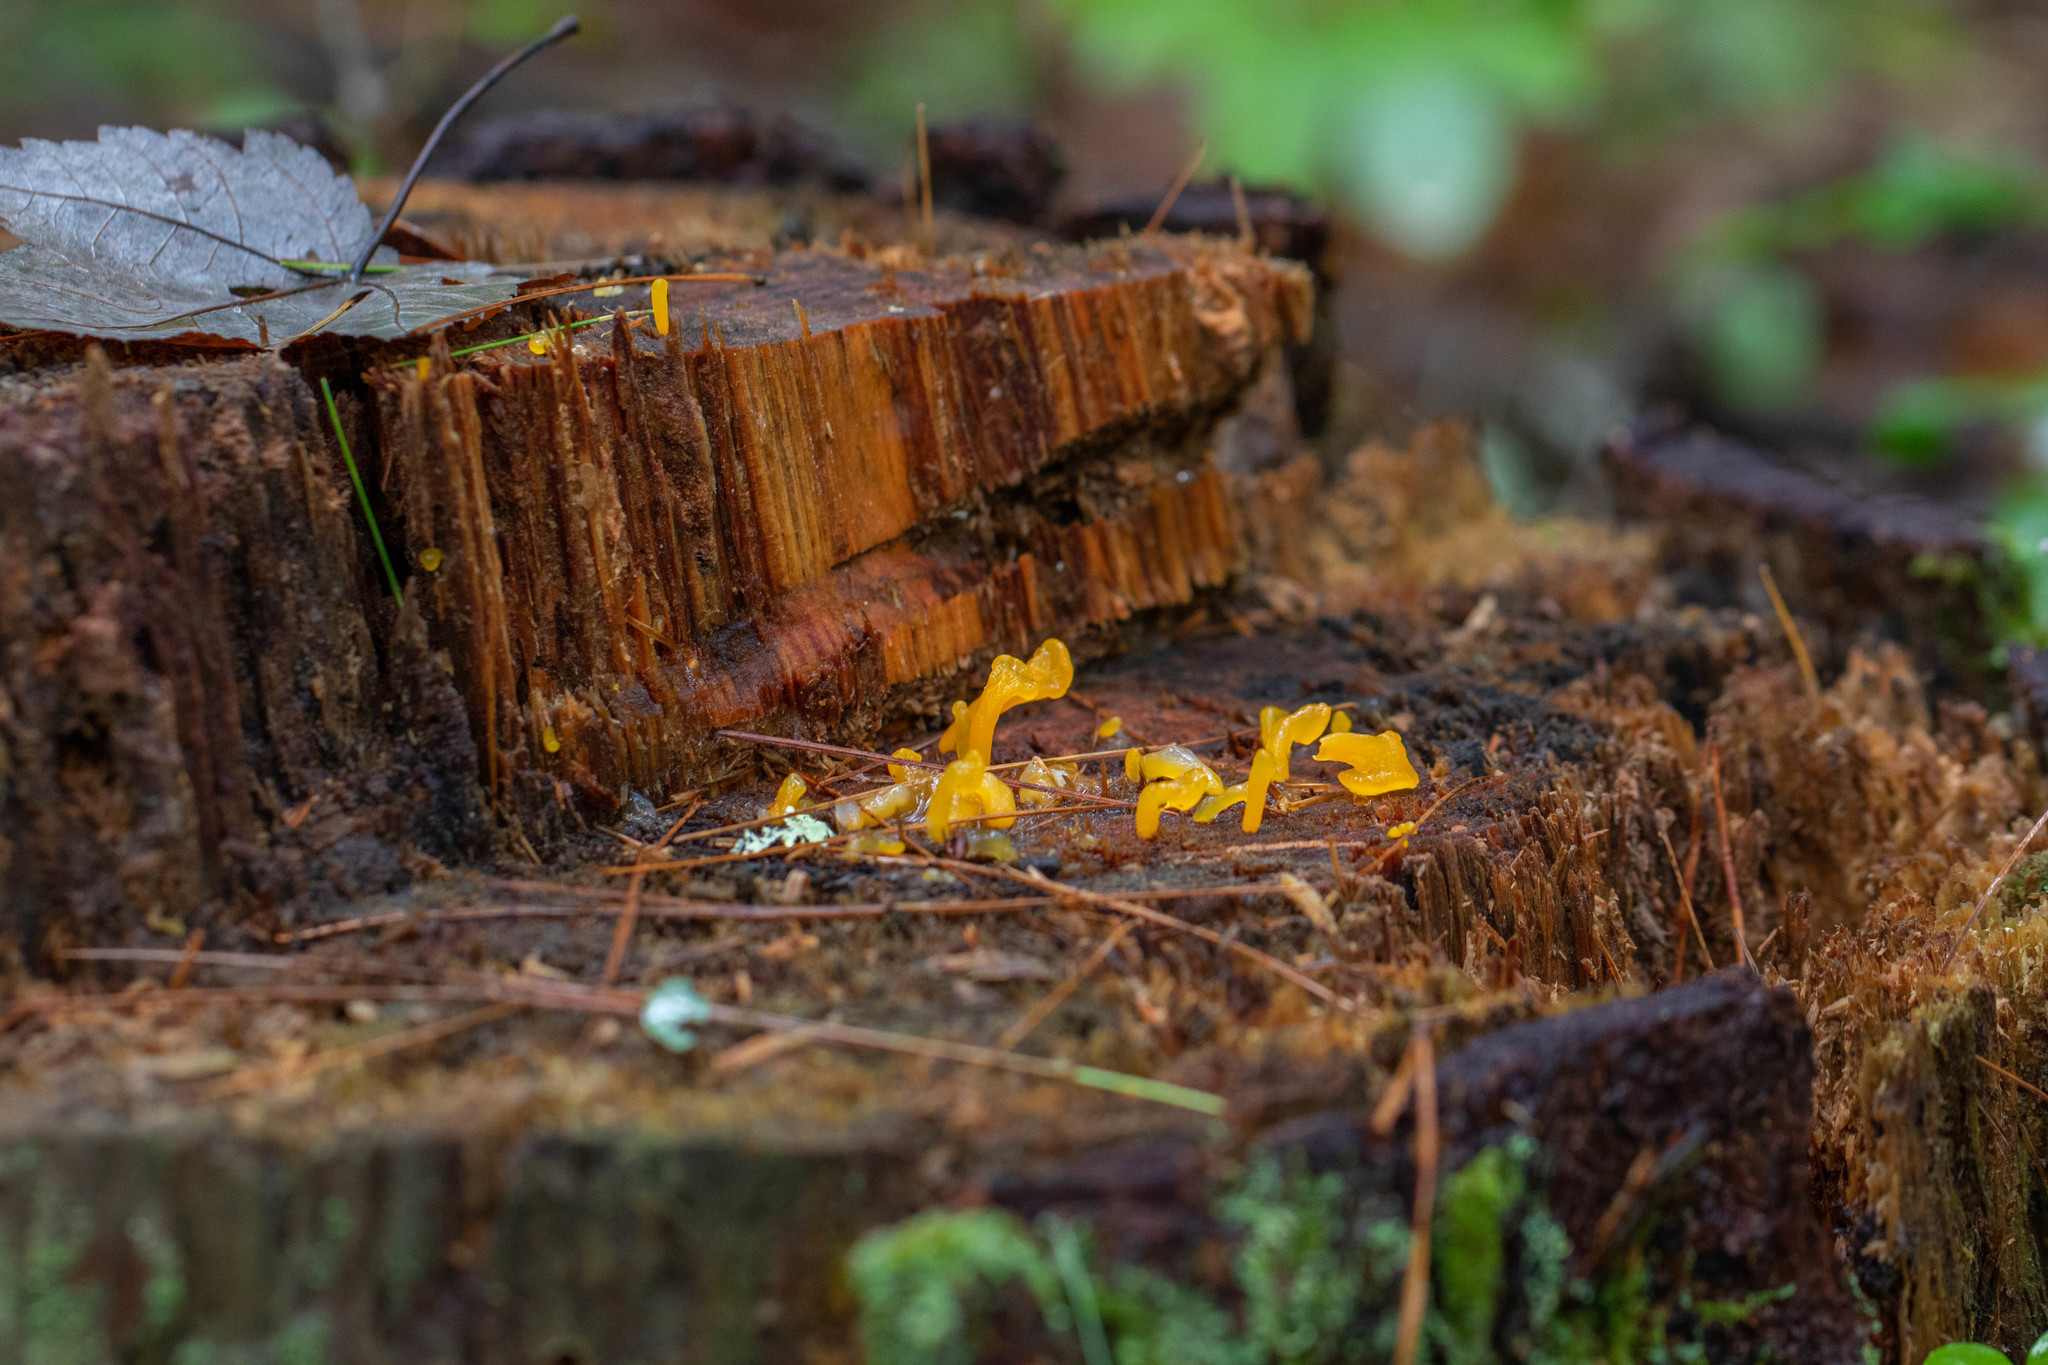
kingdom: Fungi
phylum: Basidiomycota
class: Dacrymycetes
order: Dacrymycetales
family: Dacrymycetaceae
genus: Dacrymyces
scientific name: Dacrymyces spathularius
